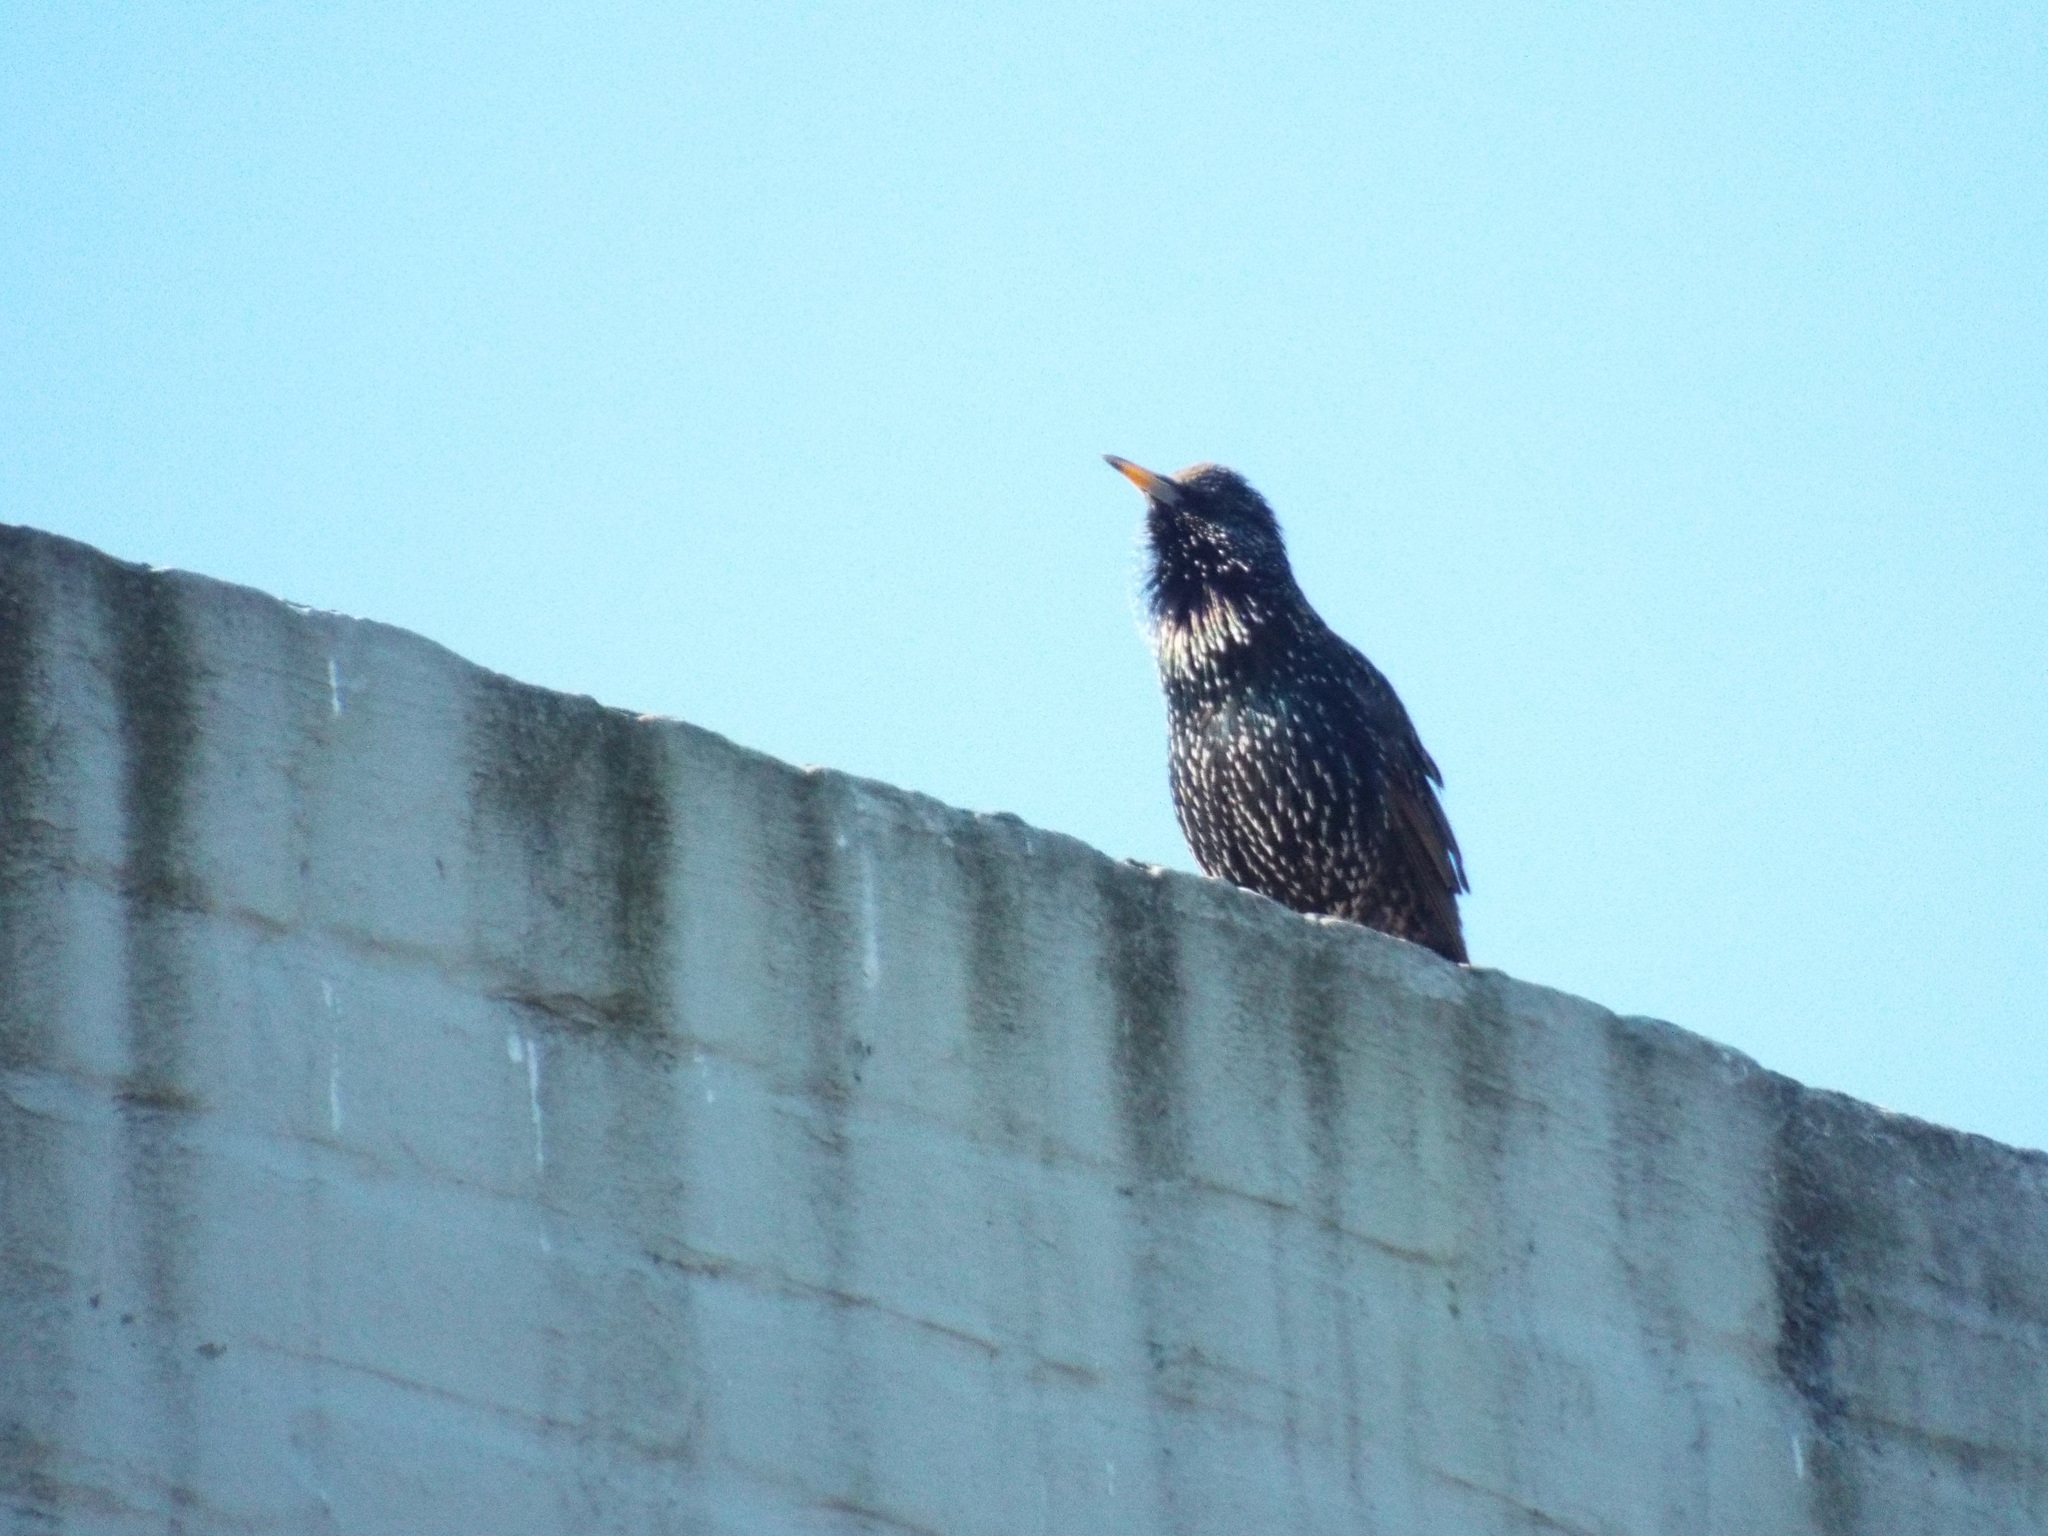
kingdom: Animalia
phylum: Chordata
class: Aves
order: Passeriformes
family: Sturnidae
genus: Sturnus
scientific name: Sturnus vulgaris
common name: Common starling
